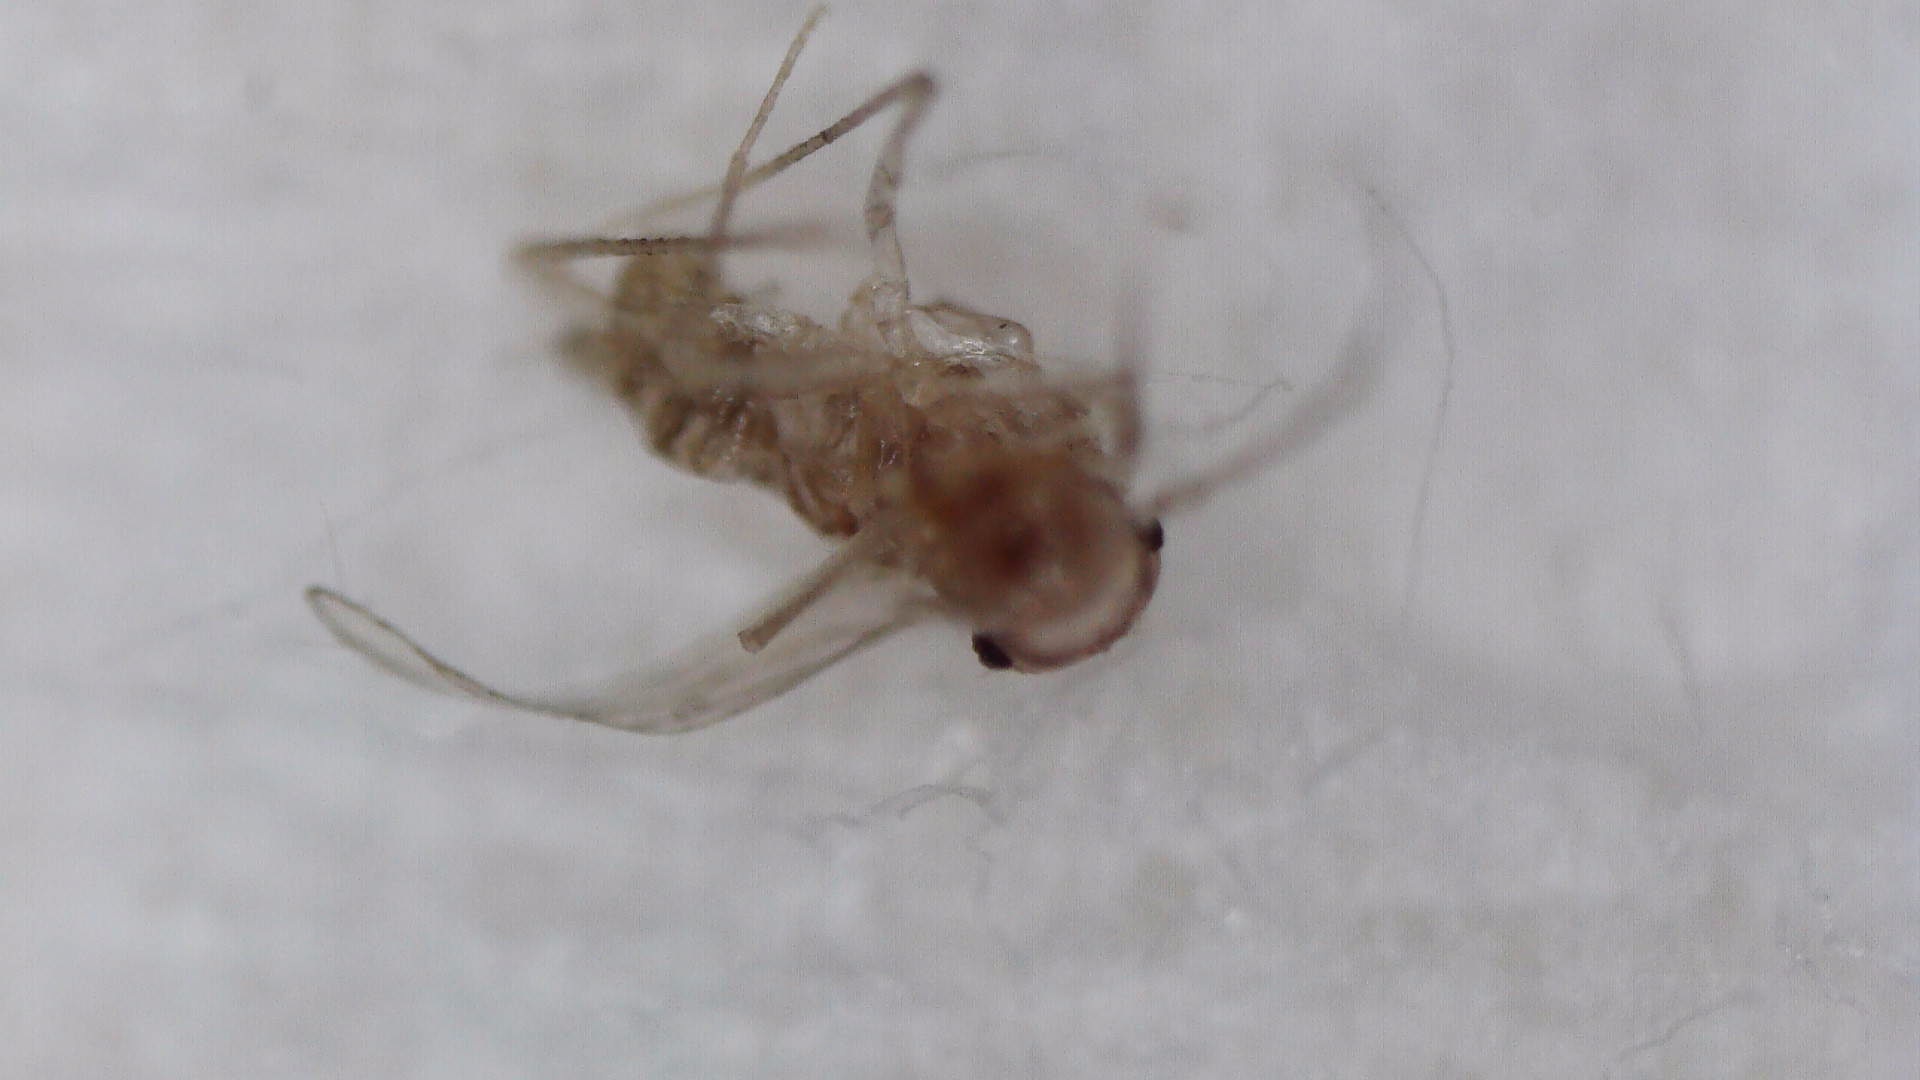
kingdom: Animalia
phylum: Arthropoda
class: Insecta
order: Psocodea
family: Psyllipsocidae
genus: Dorypteryx
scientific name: Dorypteryx domestica
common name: Cave barklouse
